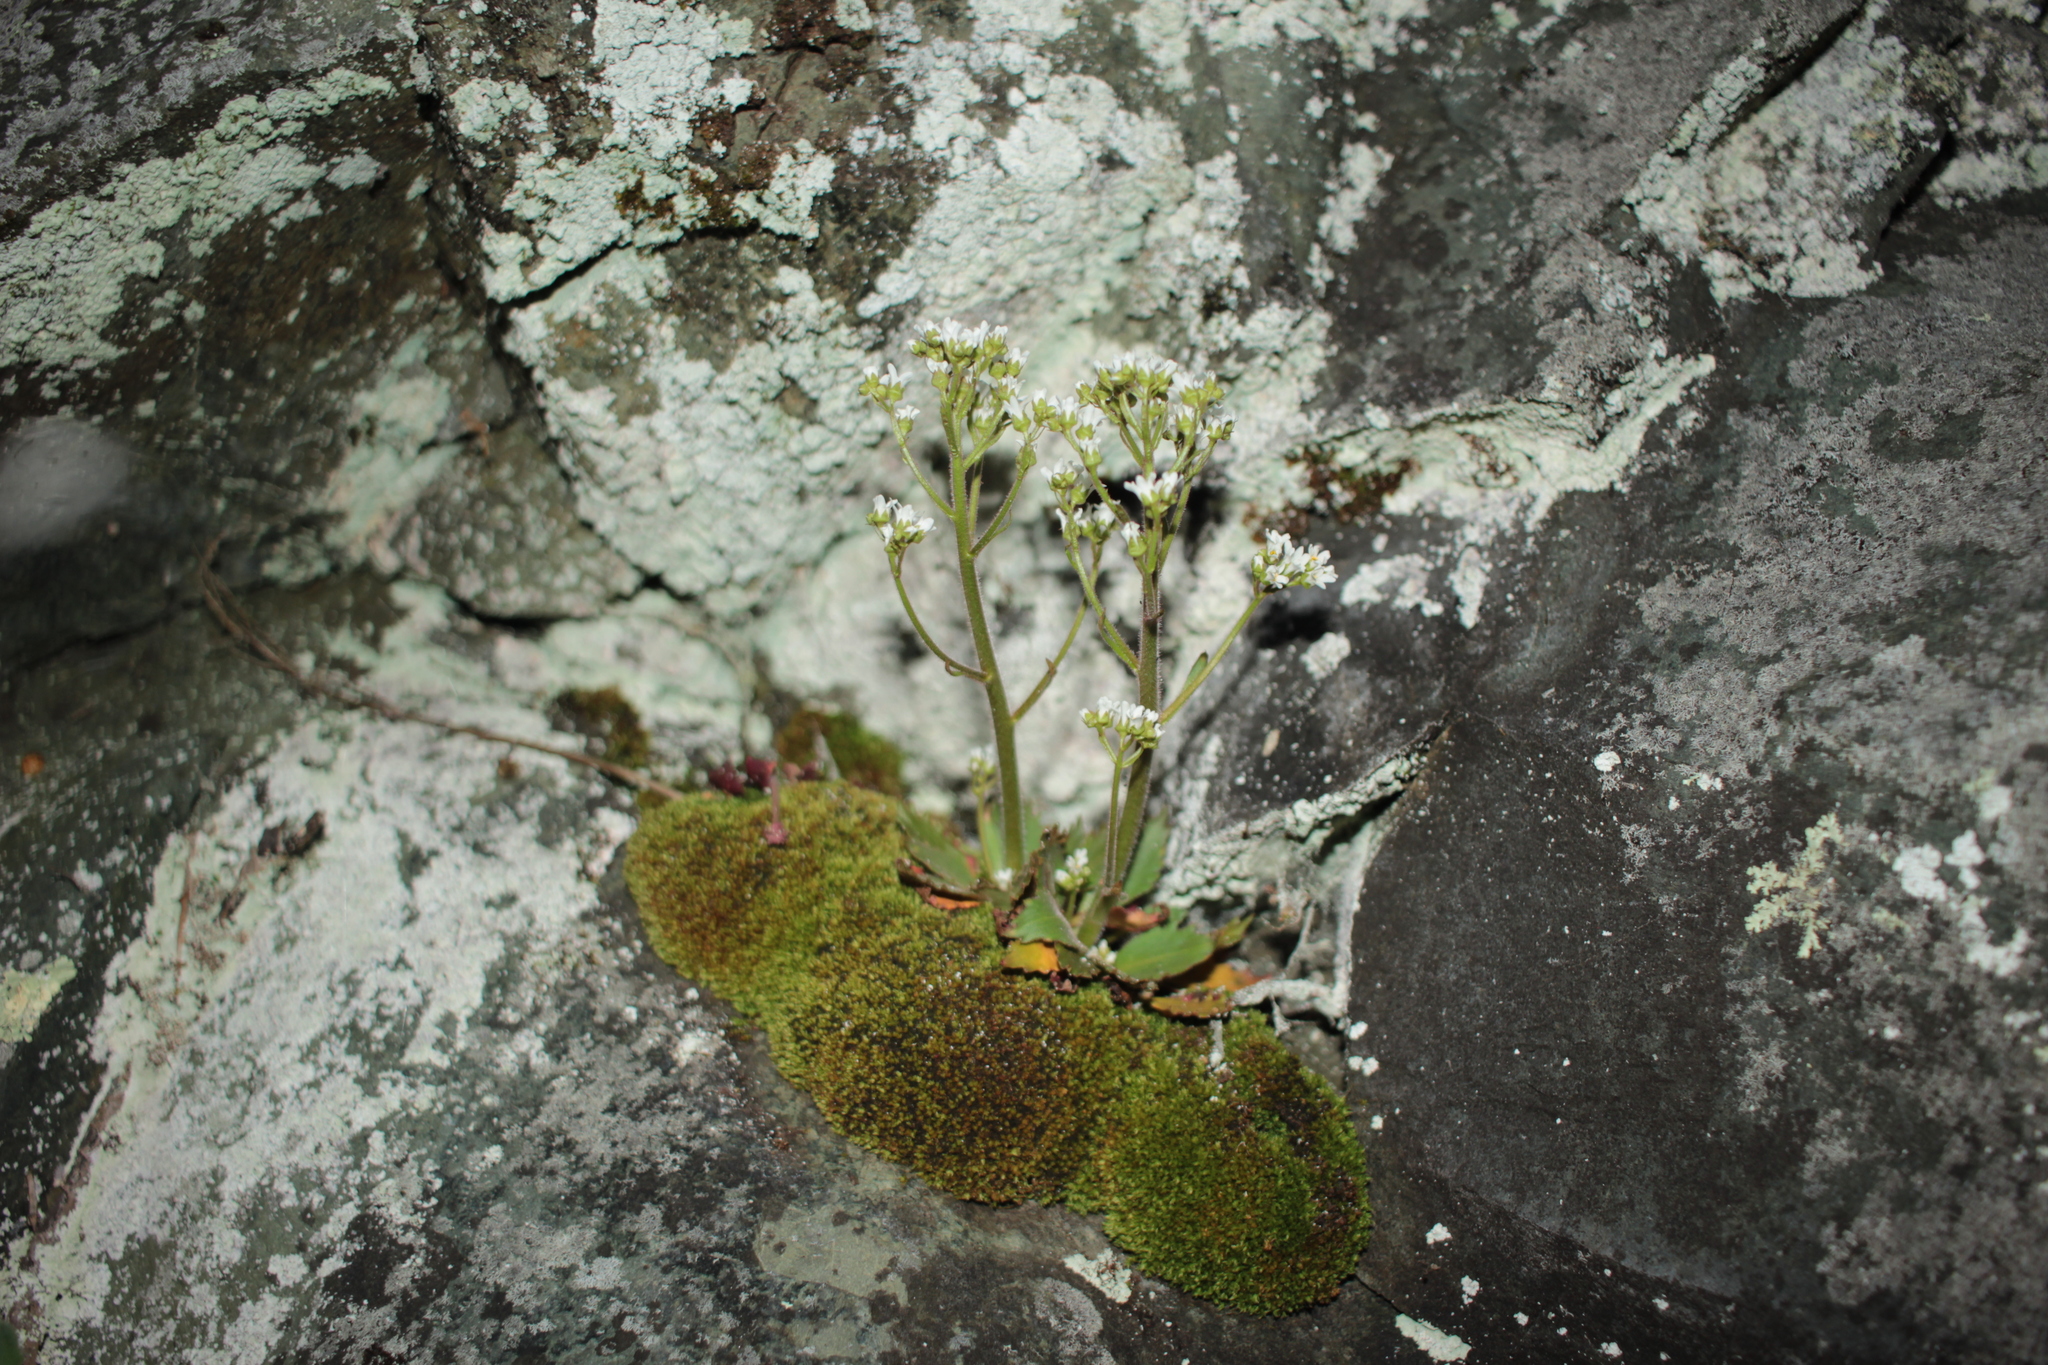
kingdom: Plantae
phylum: Tracheophyta
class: Magnoliopsida
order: Saxifragales
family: Saxifragaceae
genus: Micranthes
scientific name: Micranthes virginiensis
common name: Early saxifrage
